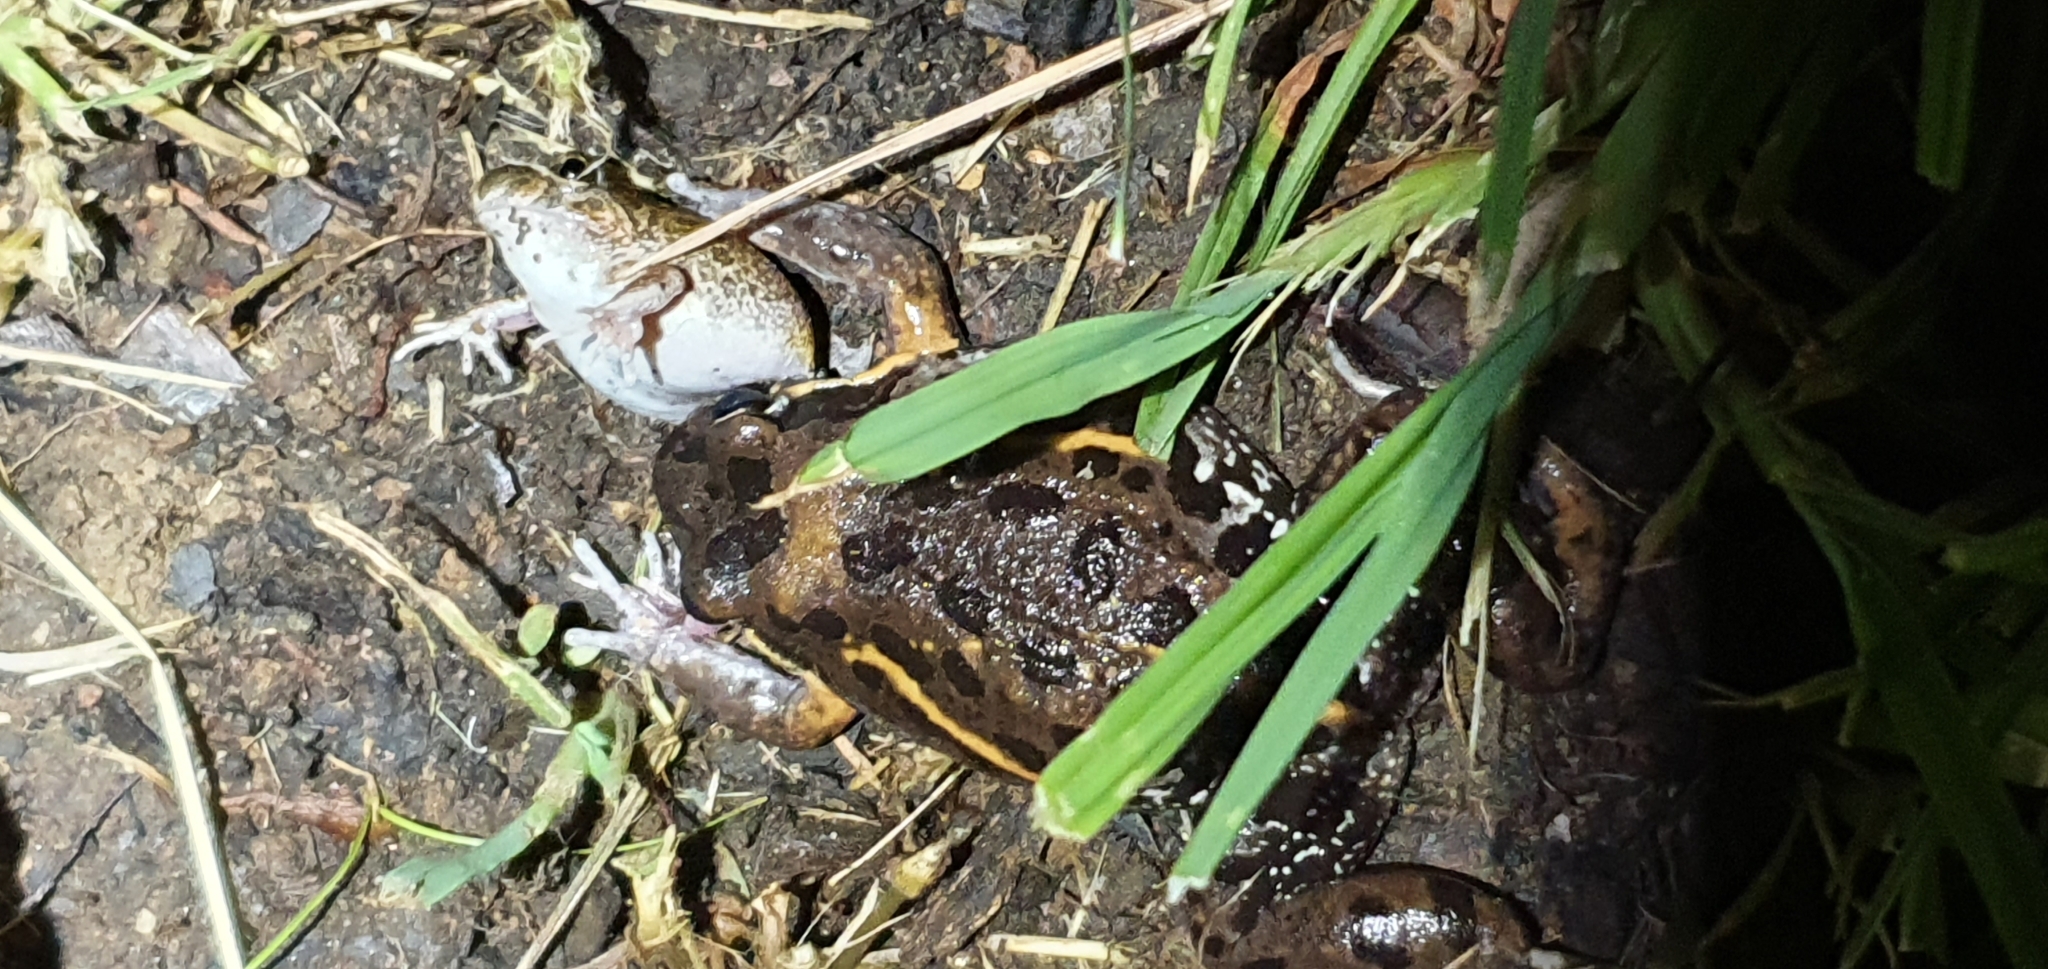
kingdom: Animalia
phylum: Chordata
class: Amphibia
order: Anura
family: Limnodynastidae
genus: Limnodynastes
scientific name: Limnodynastes salmini
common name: Salmon-striped frog
